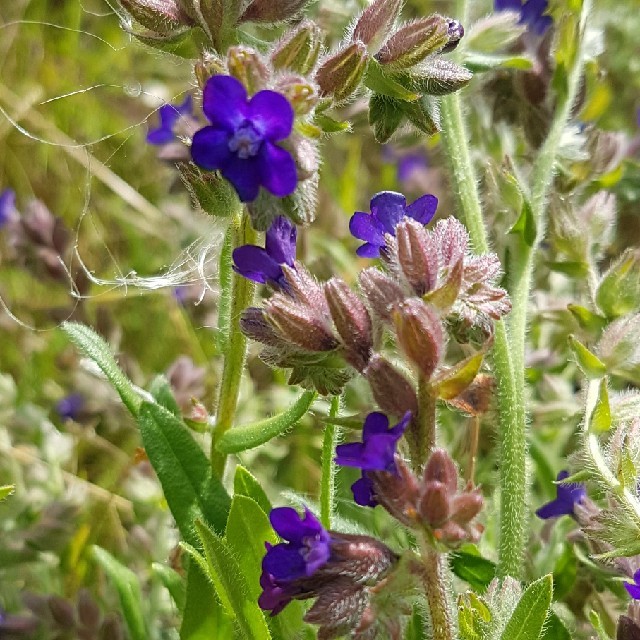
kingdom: Plantae
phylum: Tracheophyta
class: Magnoliopsida
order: Boraginales
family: Boraginaceae
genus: Anchusa
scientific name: Anchusa officinalis
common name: Alkanet
